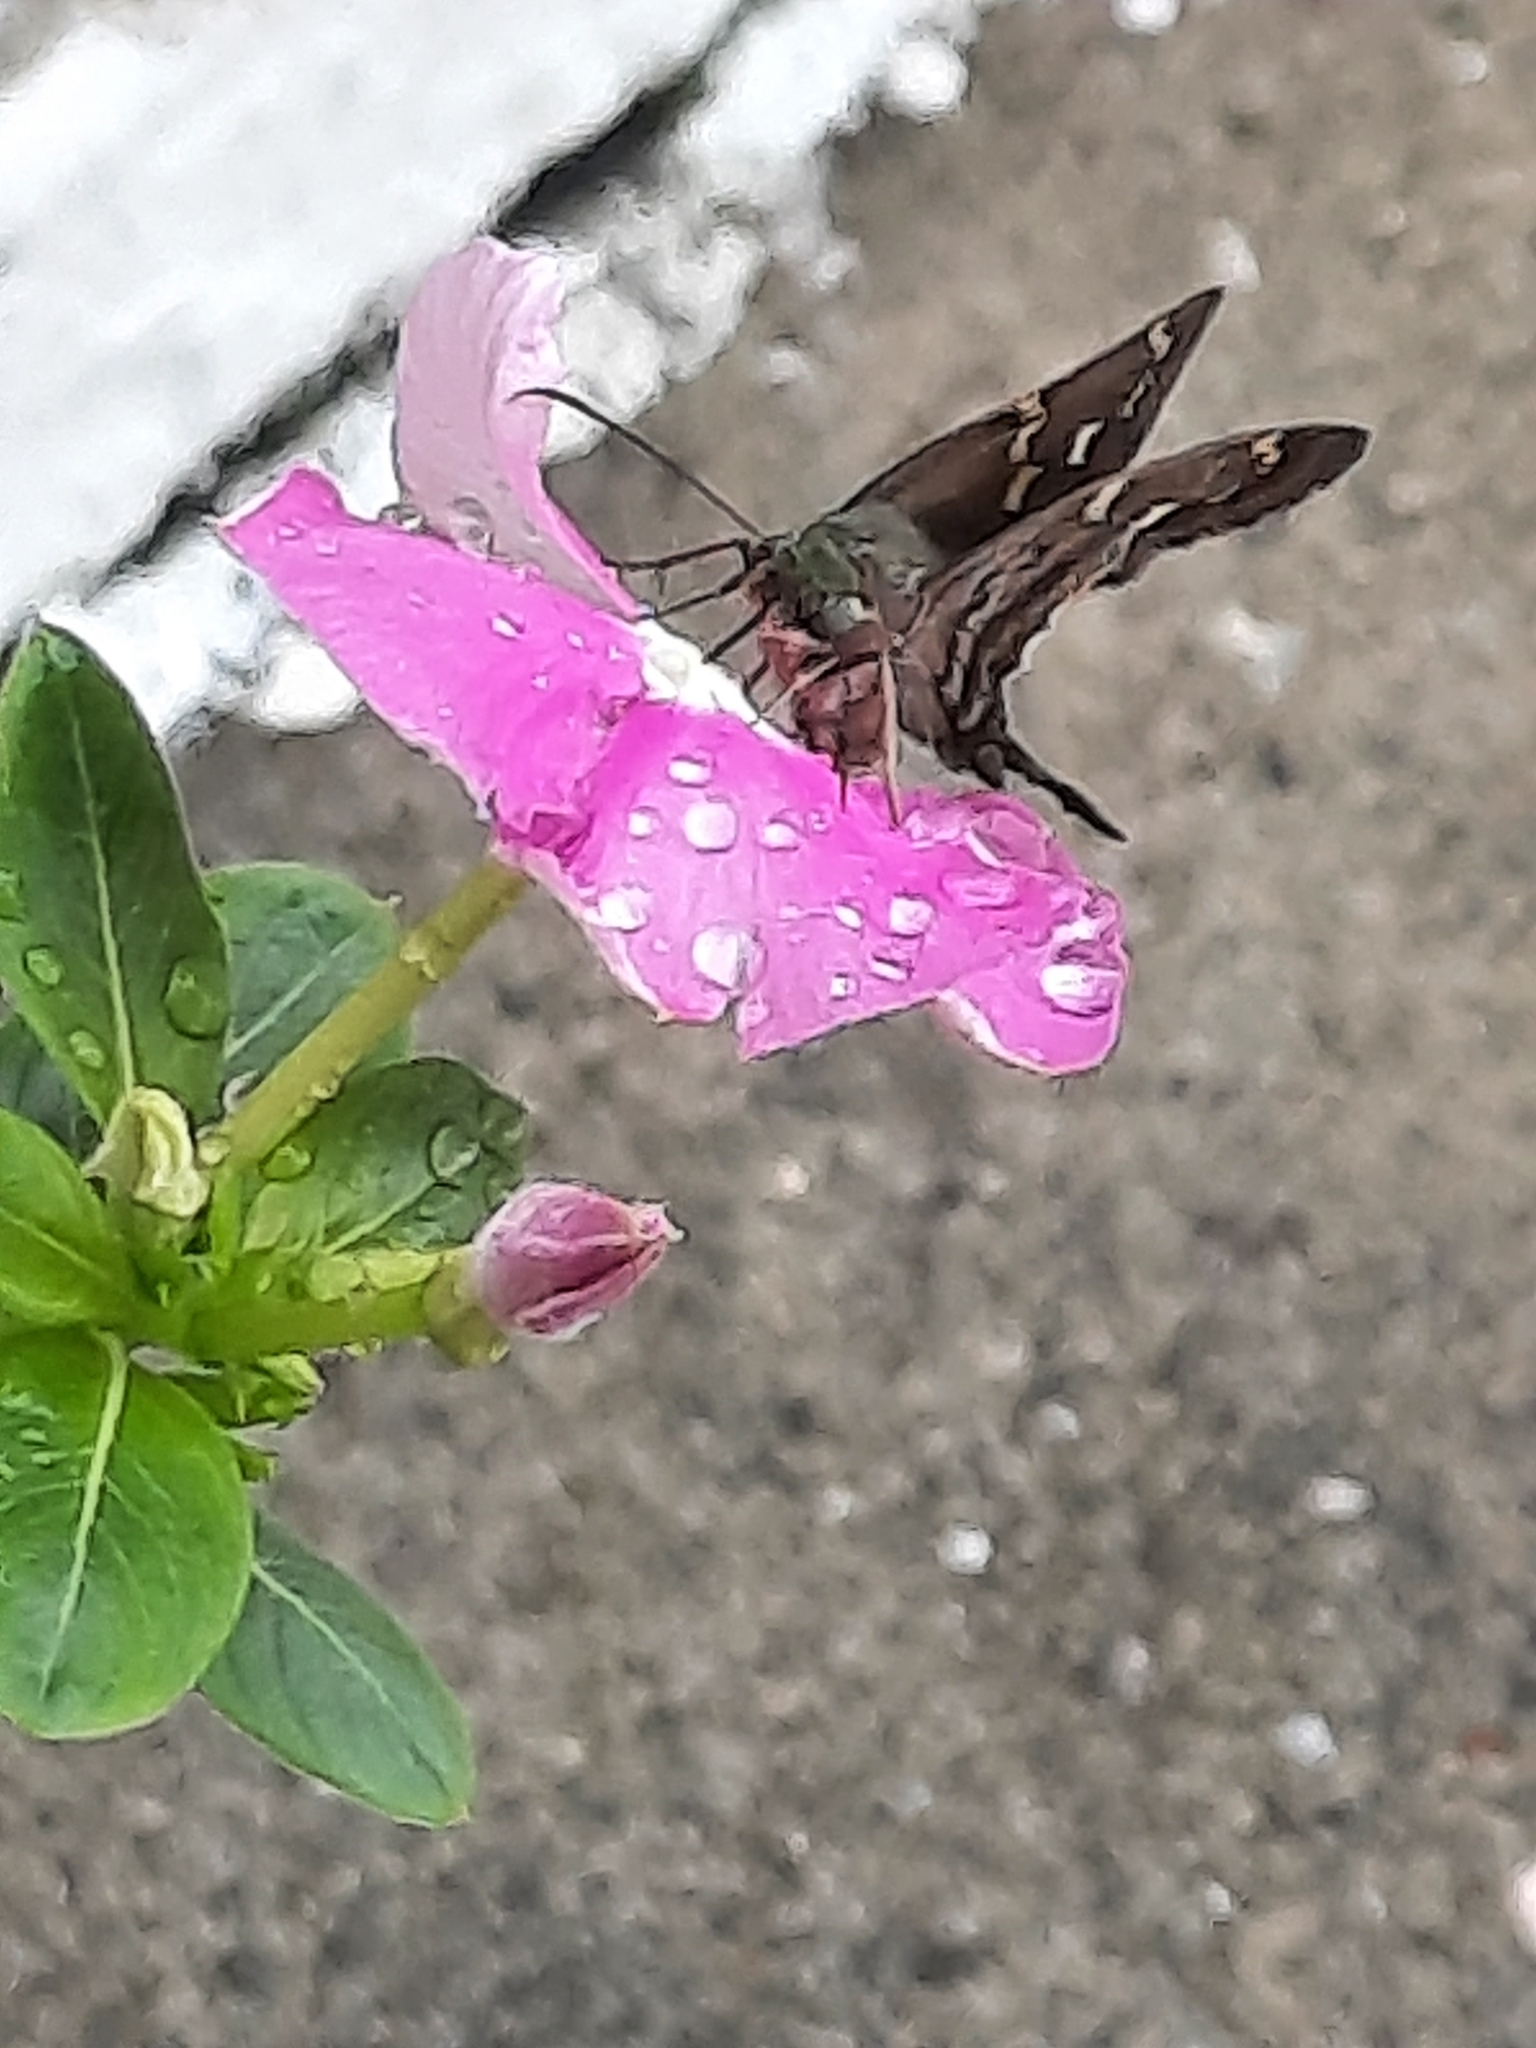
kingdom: Animalia
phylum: Arthropoda
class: Insecta
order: Lepidoptera
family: Hesperiidae
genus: Urbanus
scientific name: Urbanus proteus
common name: Long-tailed skipper
